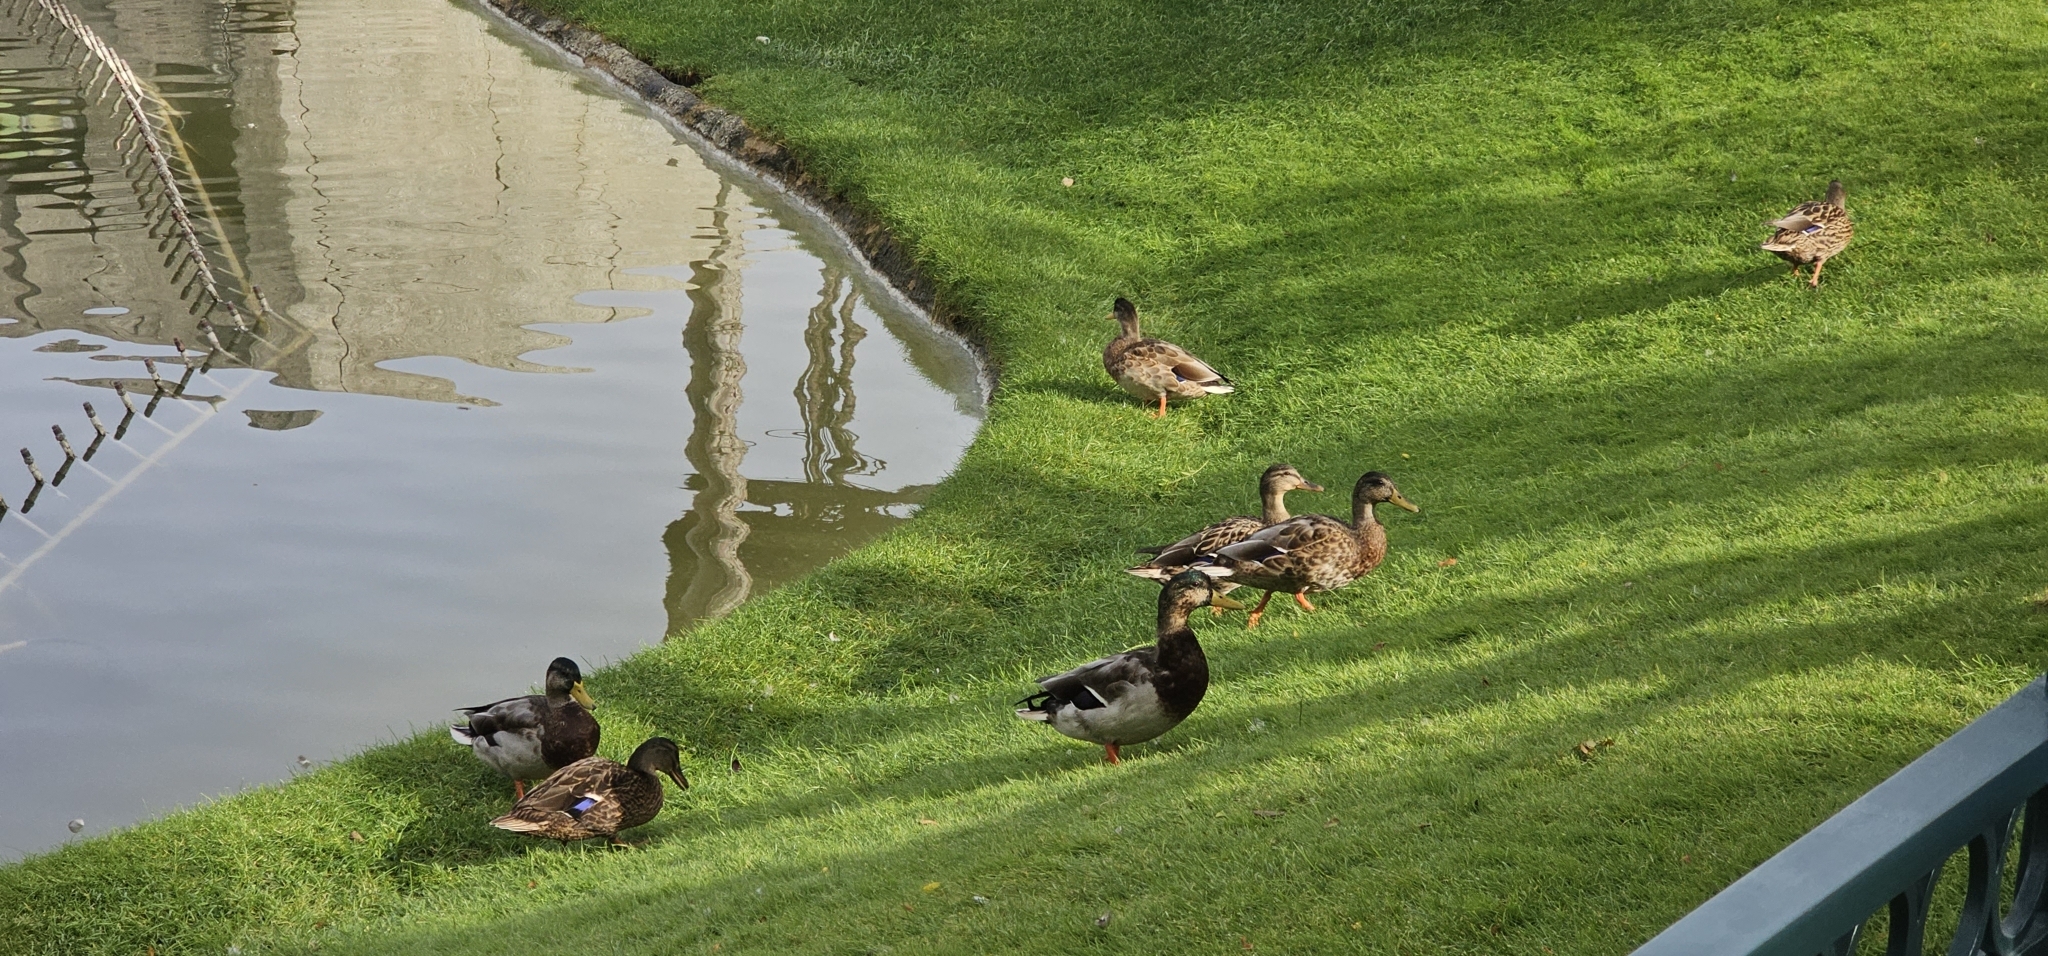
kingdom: Animalia
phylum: Chordata
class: Aves
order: Anseriformes
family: Anatidae
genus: Anas
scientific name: Anas platyrhynchos
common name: Mallard
